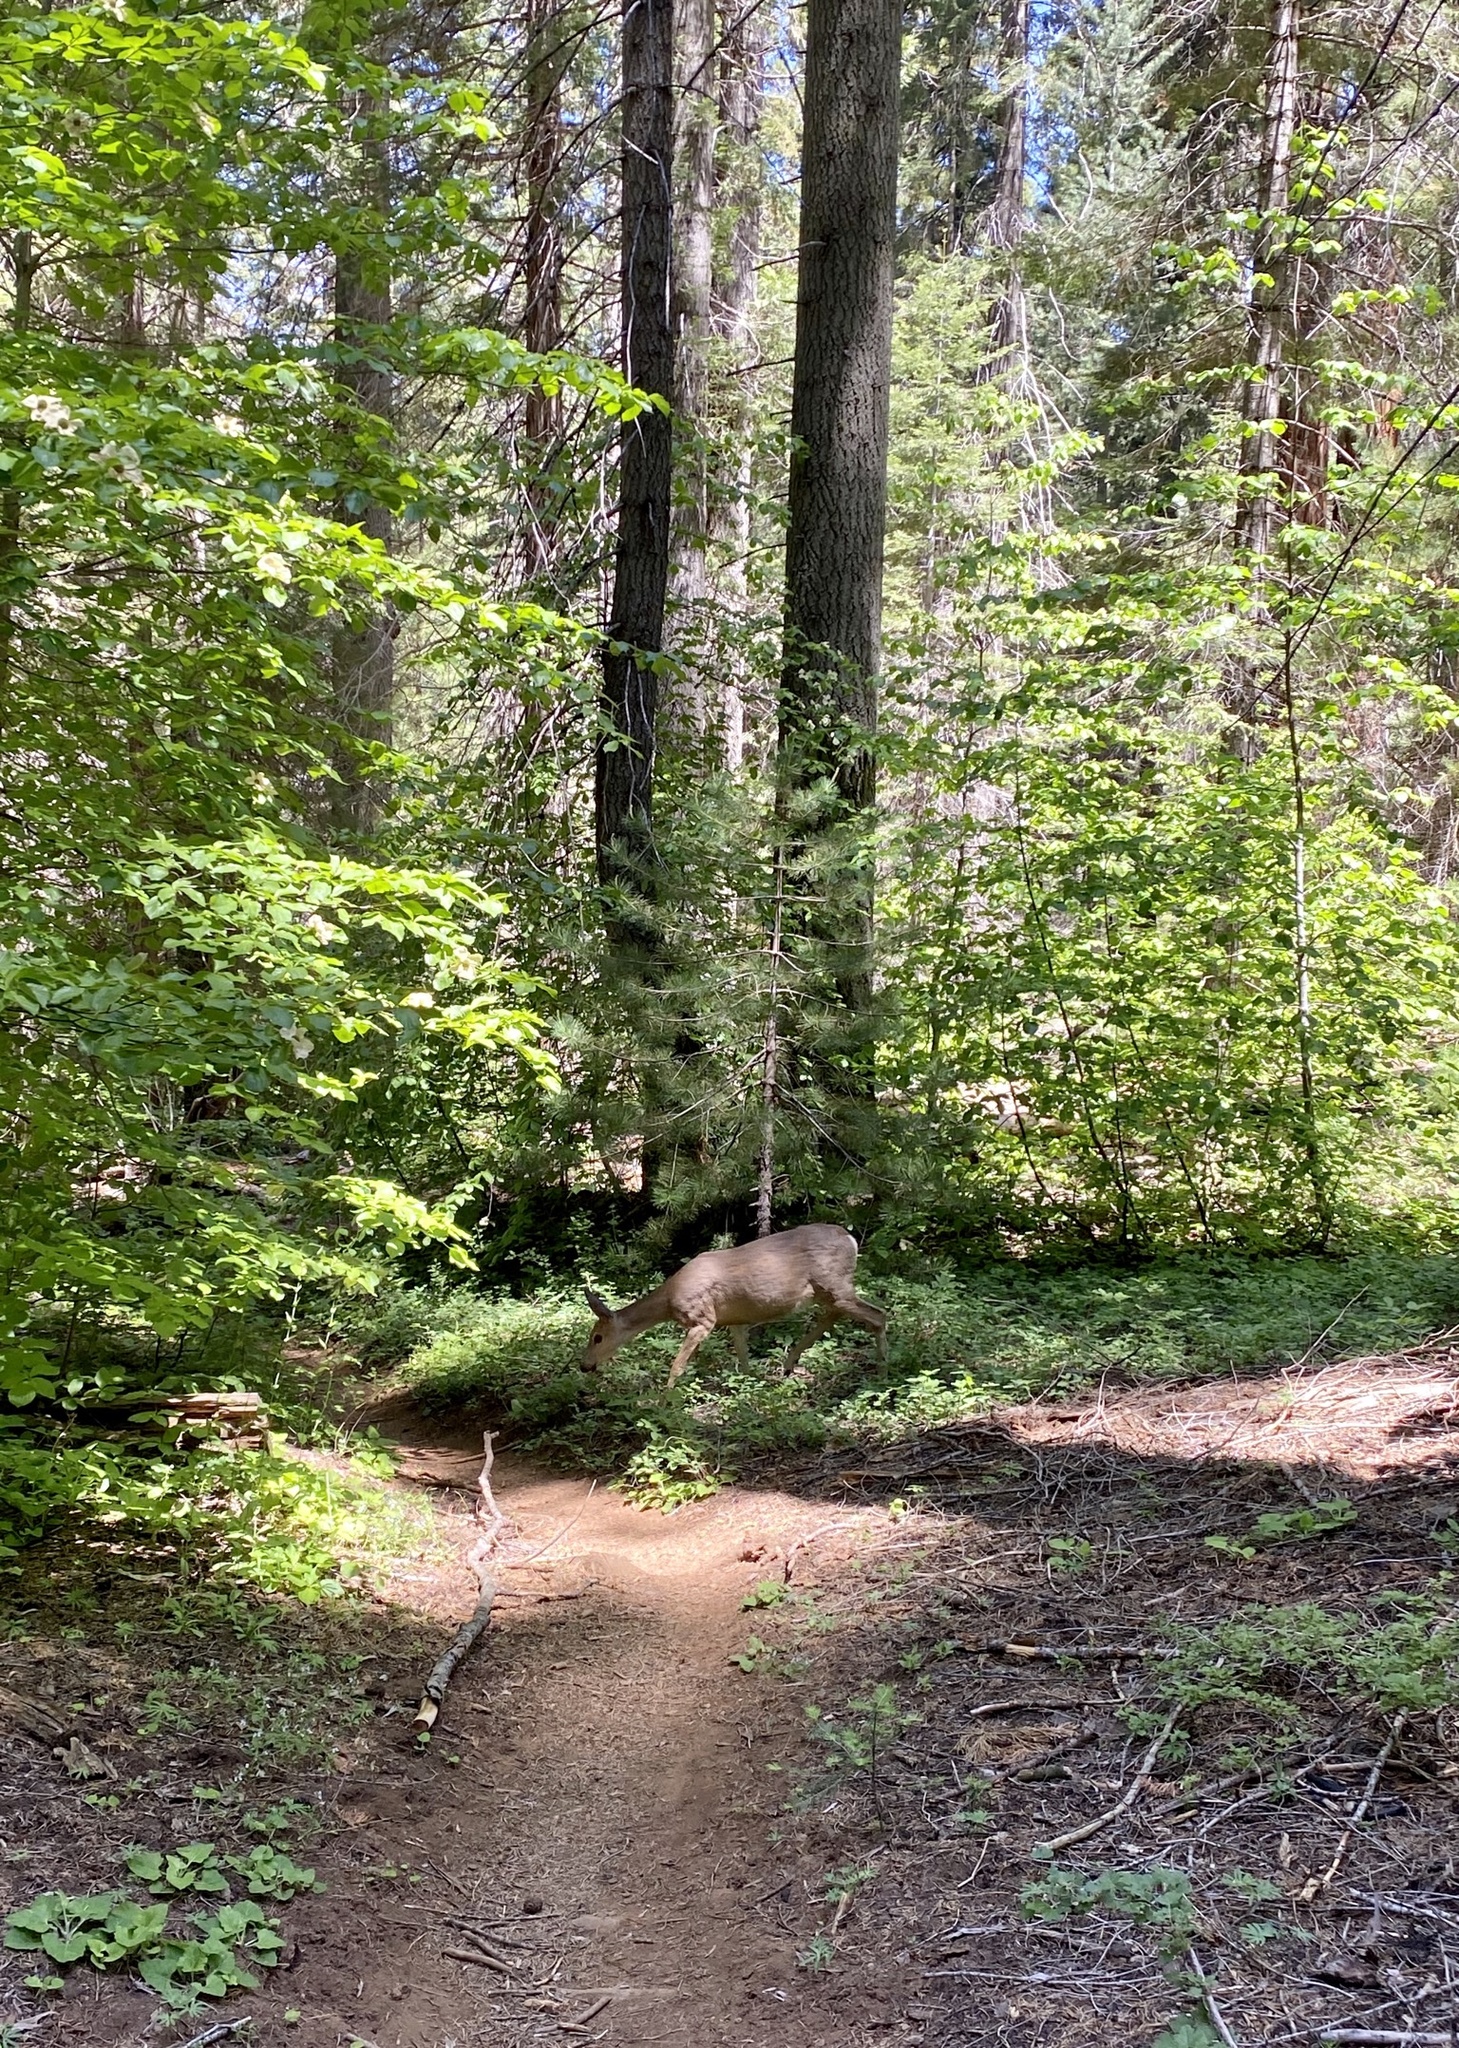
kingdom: Animalia
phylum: Chordata
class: Mammalia
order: Artiodactyla
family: Cervidae
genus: Odocoileus
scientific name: Odocoileus hemionus
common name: Mule deer
